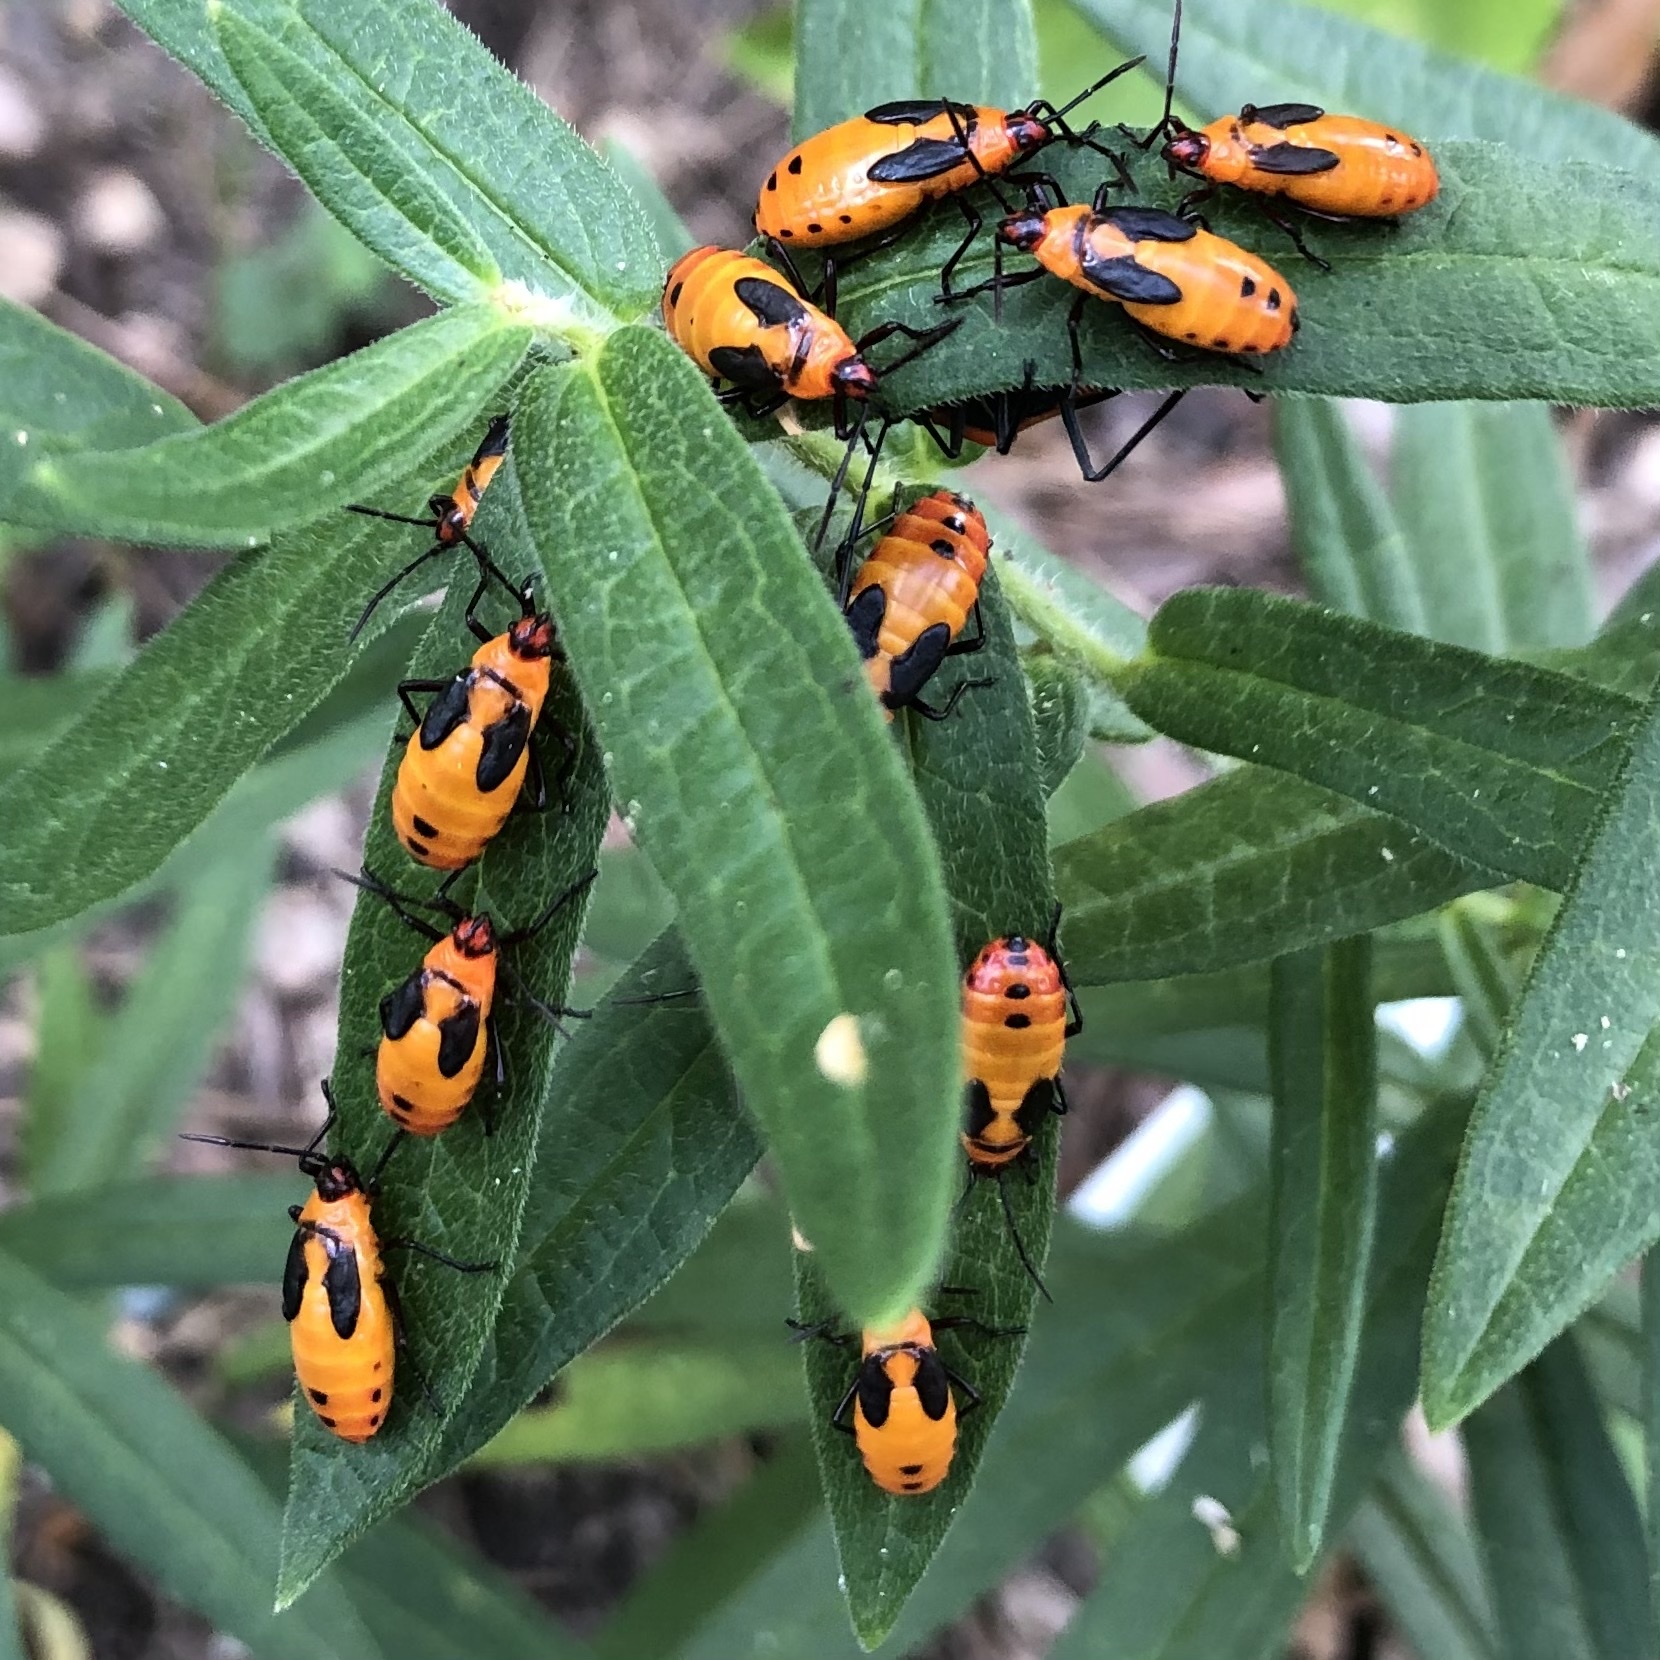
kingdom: Animalia
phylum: Arthropoda
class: Insecta
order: Hemiptera
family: Lygaeidae
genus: Oncopeltus
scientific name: Oncopeltus fasciatus
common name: Large milkweed bug
